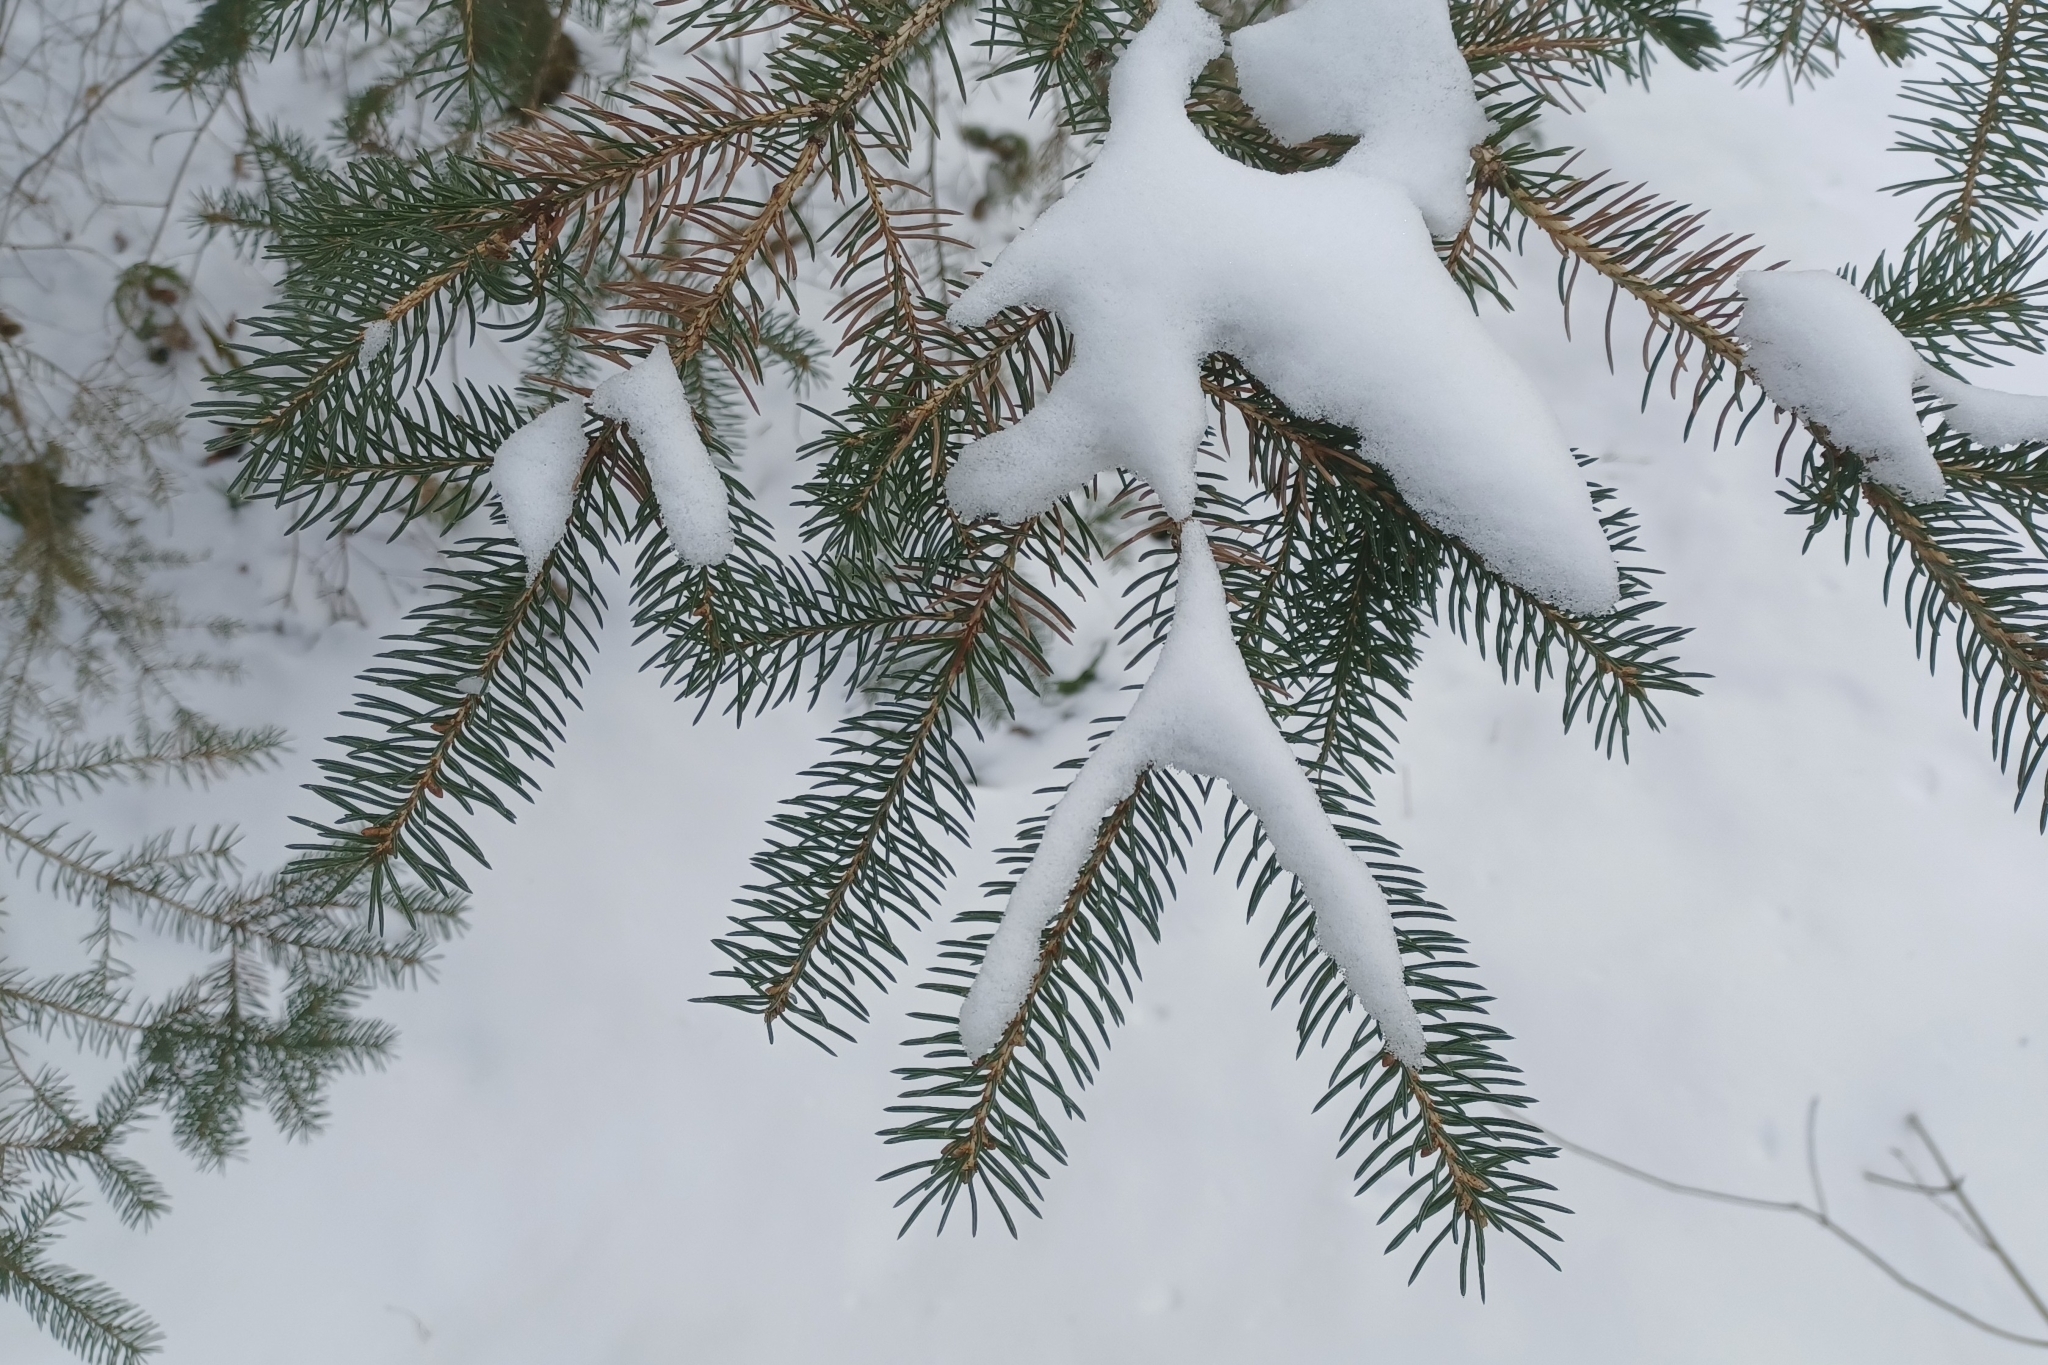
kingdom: Plantae
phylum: Tracheophyta
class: Pinopsida
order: Pinales
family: Pinaceae
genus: Picea
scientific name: Picea glauca
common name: White spruce
